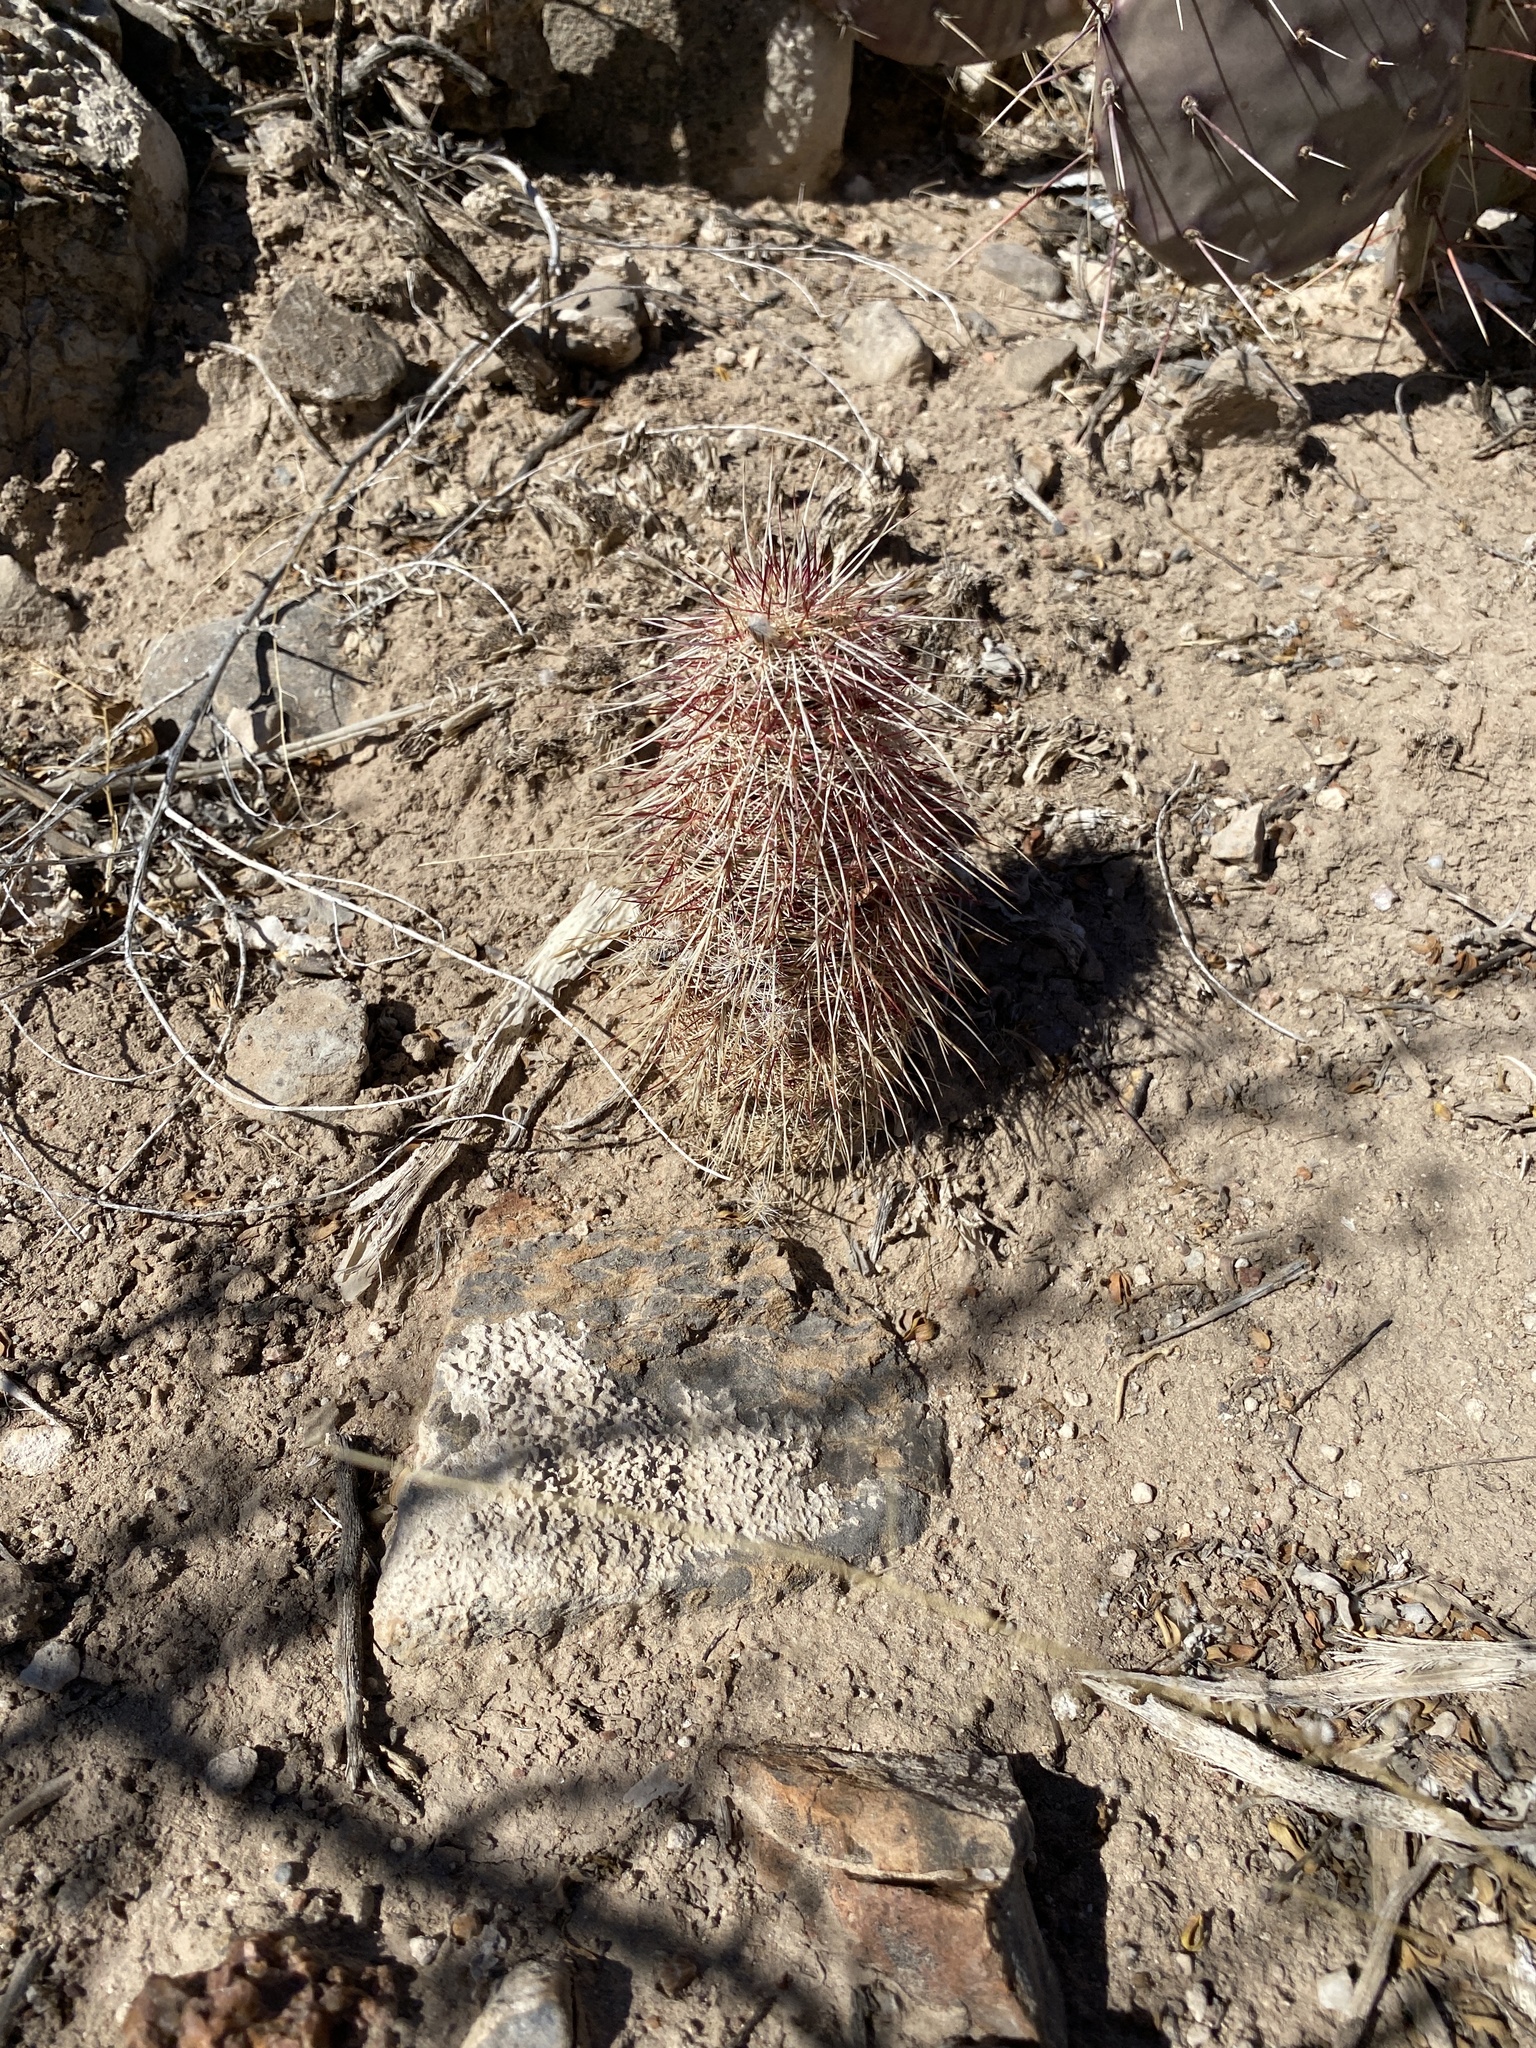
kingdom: Plantae
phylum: Tracheophyta
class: Magnoliopsida
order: Caryophyllales
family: Cactaceae
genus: Echinocereus
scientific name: Echinocereus viridiflorus
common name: Nylon hedgehog cactus
